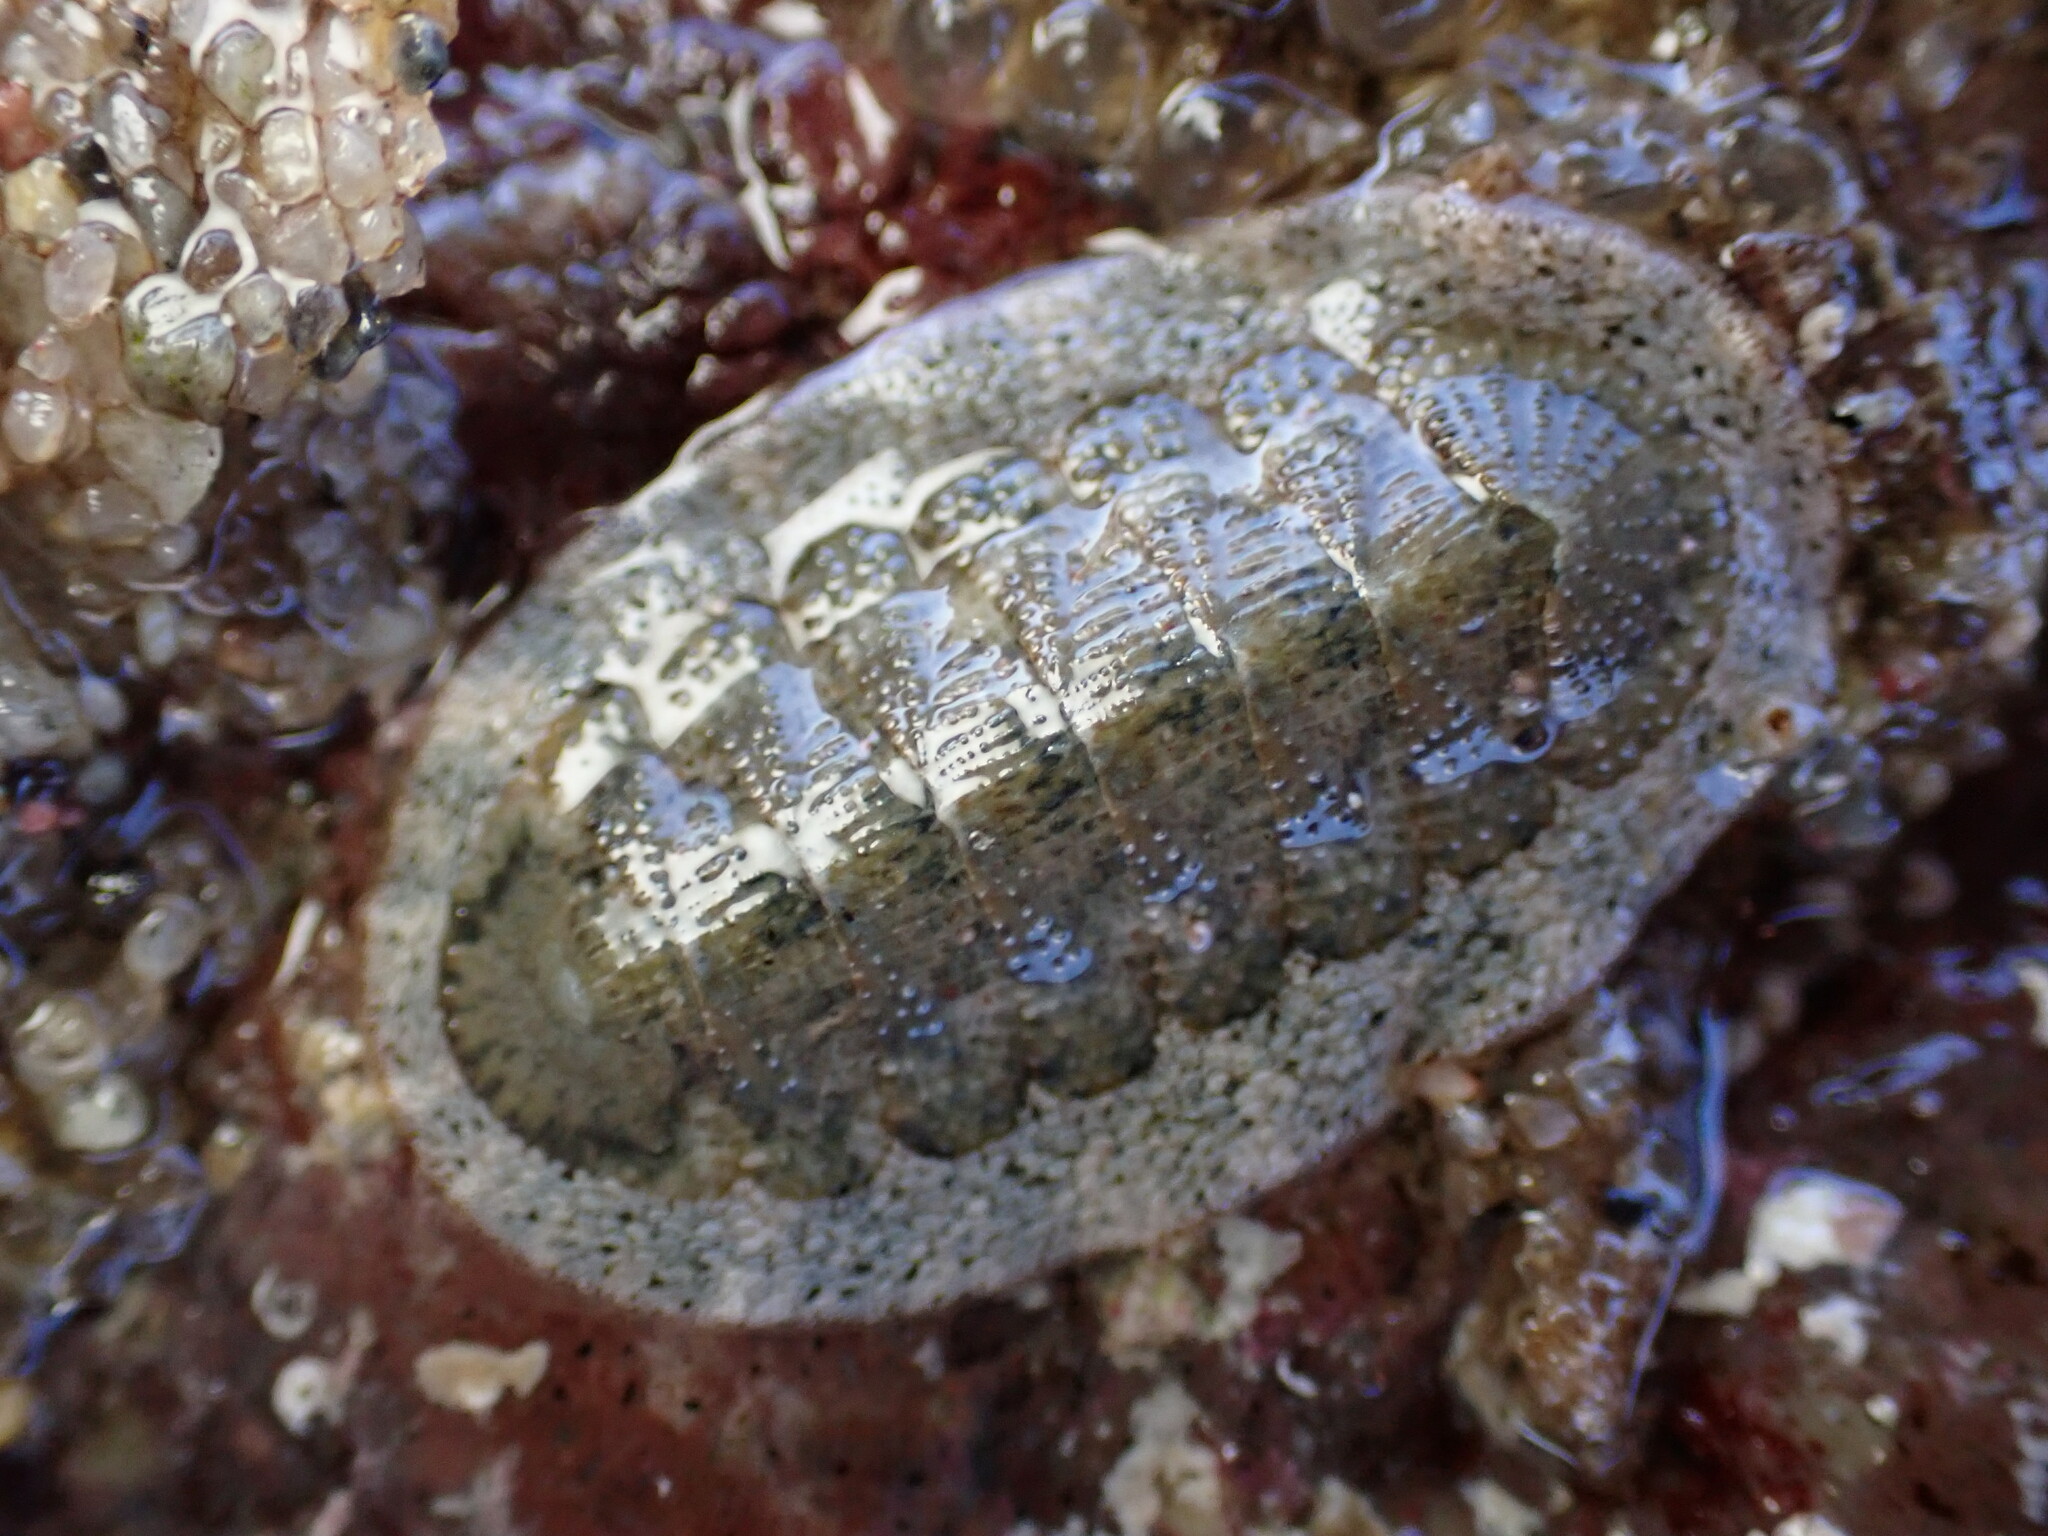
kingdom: Animalia
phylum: Mollusca
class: Polyplacophora
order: Chitonida
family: Ischnochitonidae
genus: Lepidozona
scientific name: Lepidozona pectinulata
